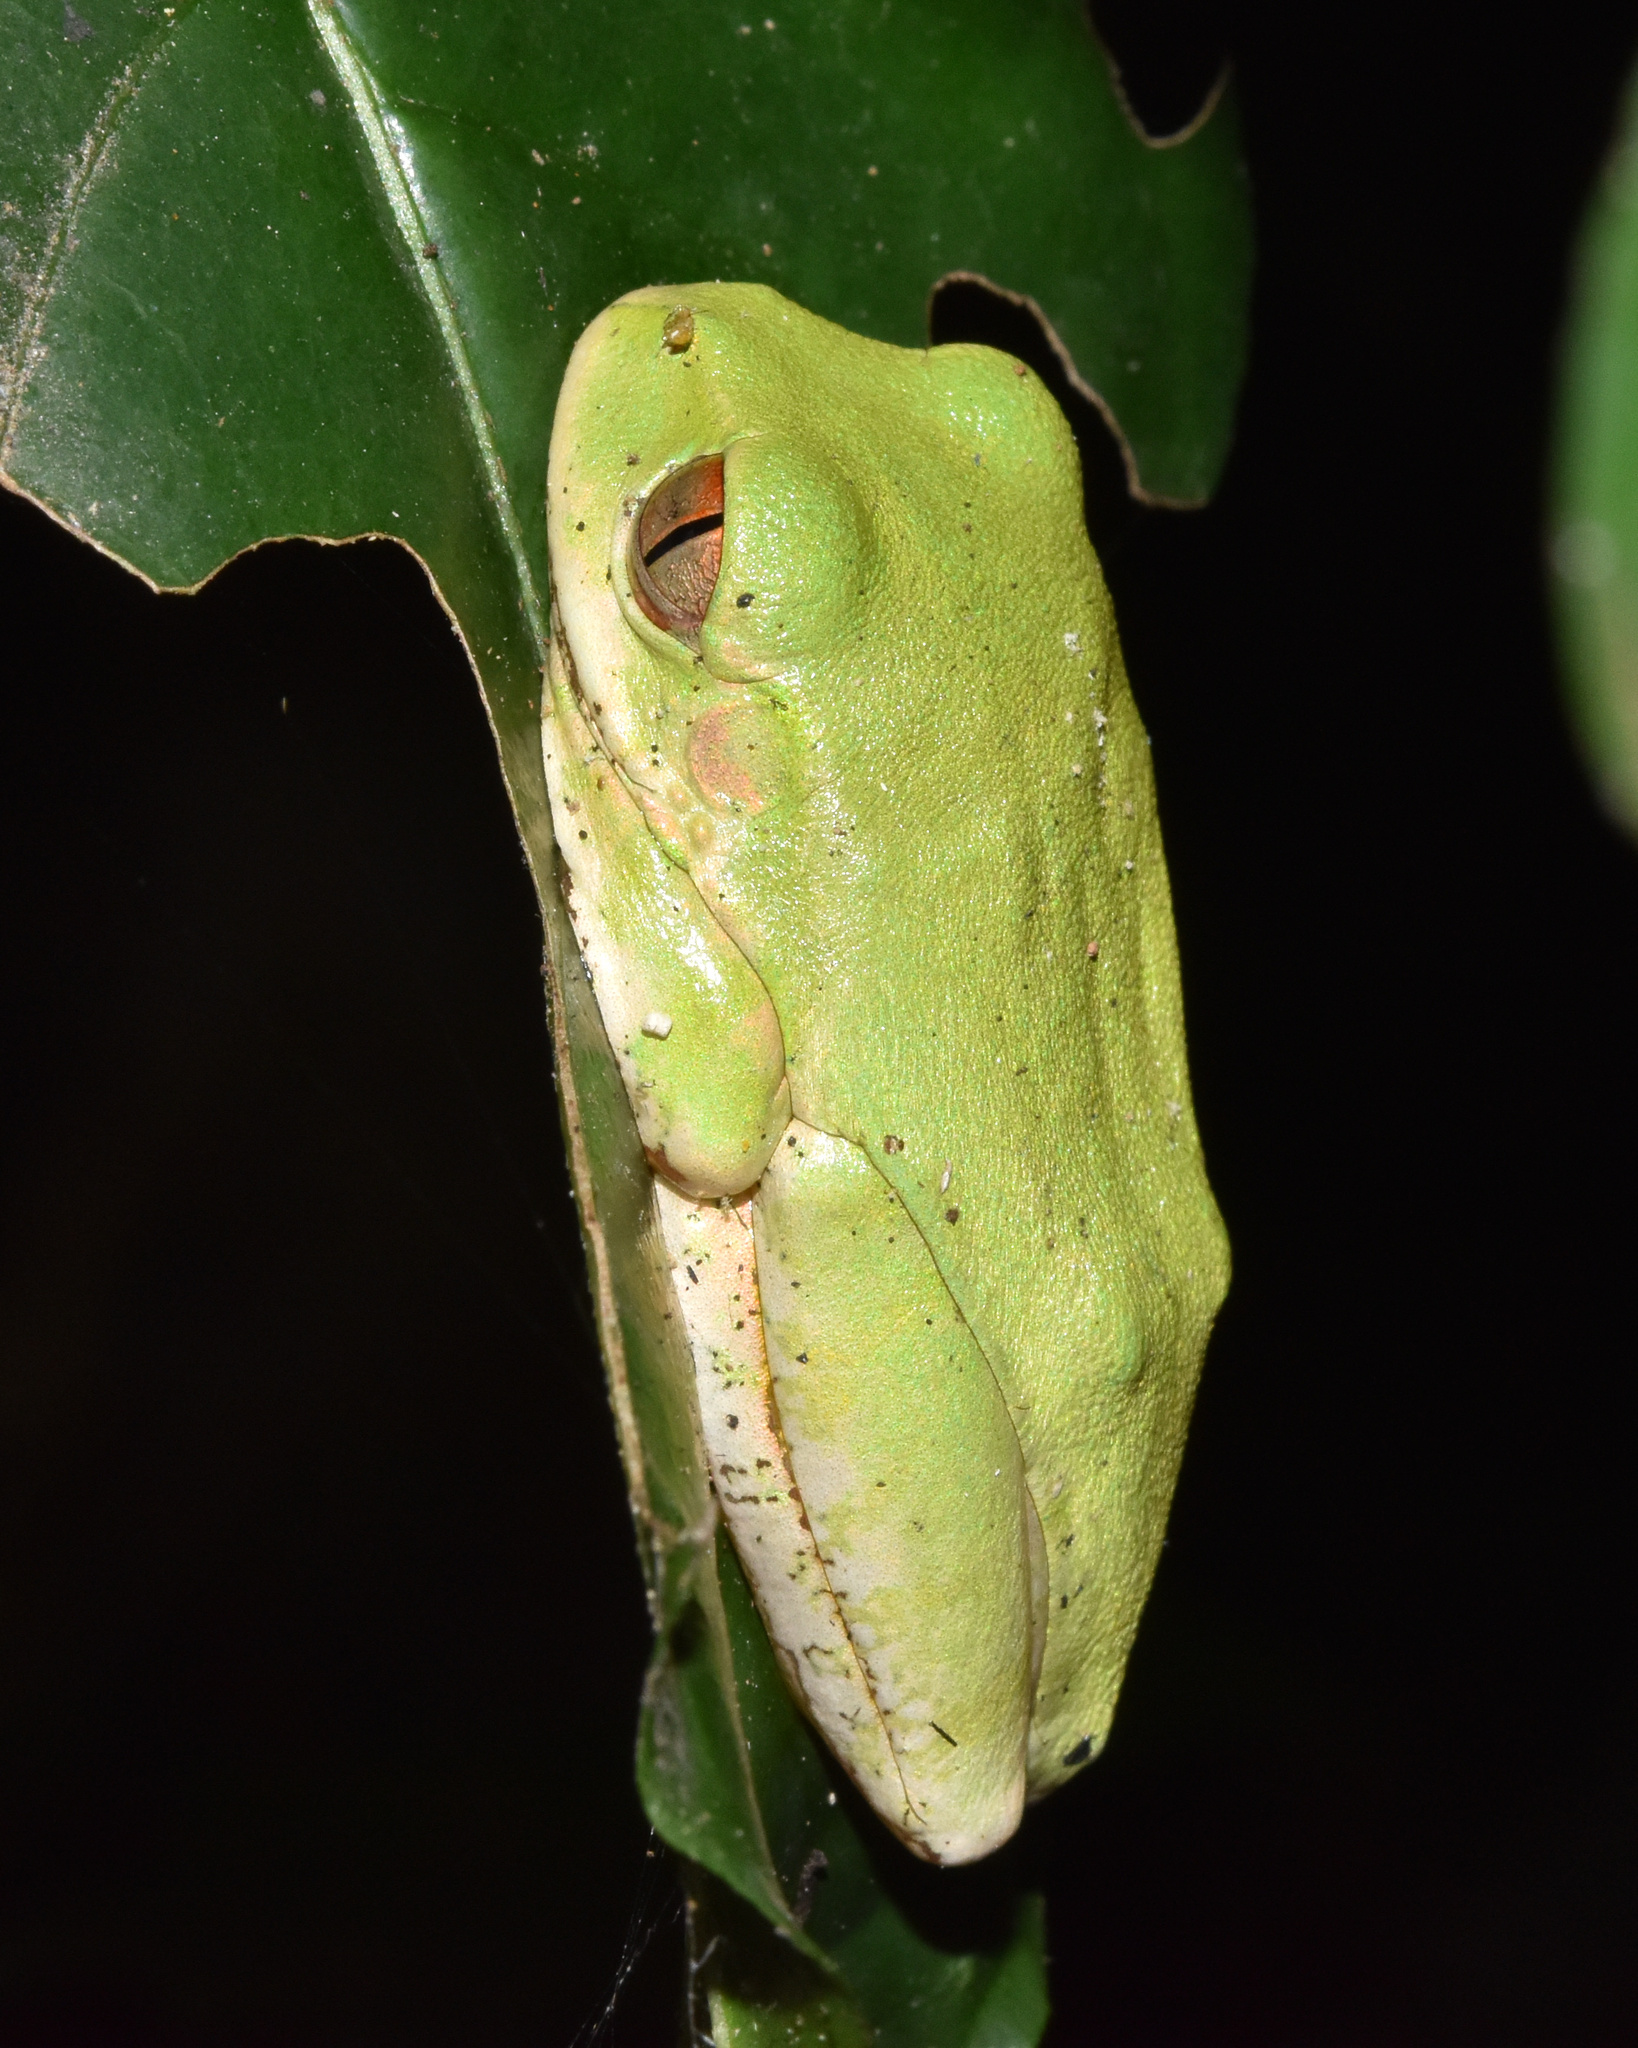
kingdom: Animalia
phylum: Chordata
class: Amphibia
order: Anura
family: Arthroleptidae
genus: Leptopelis
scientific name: Leptopelis natalensis
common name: Natal tree frog
